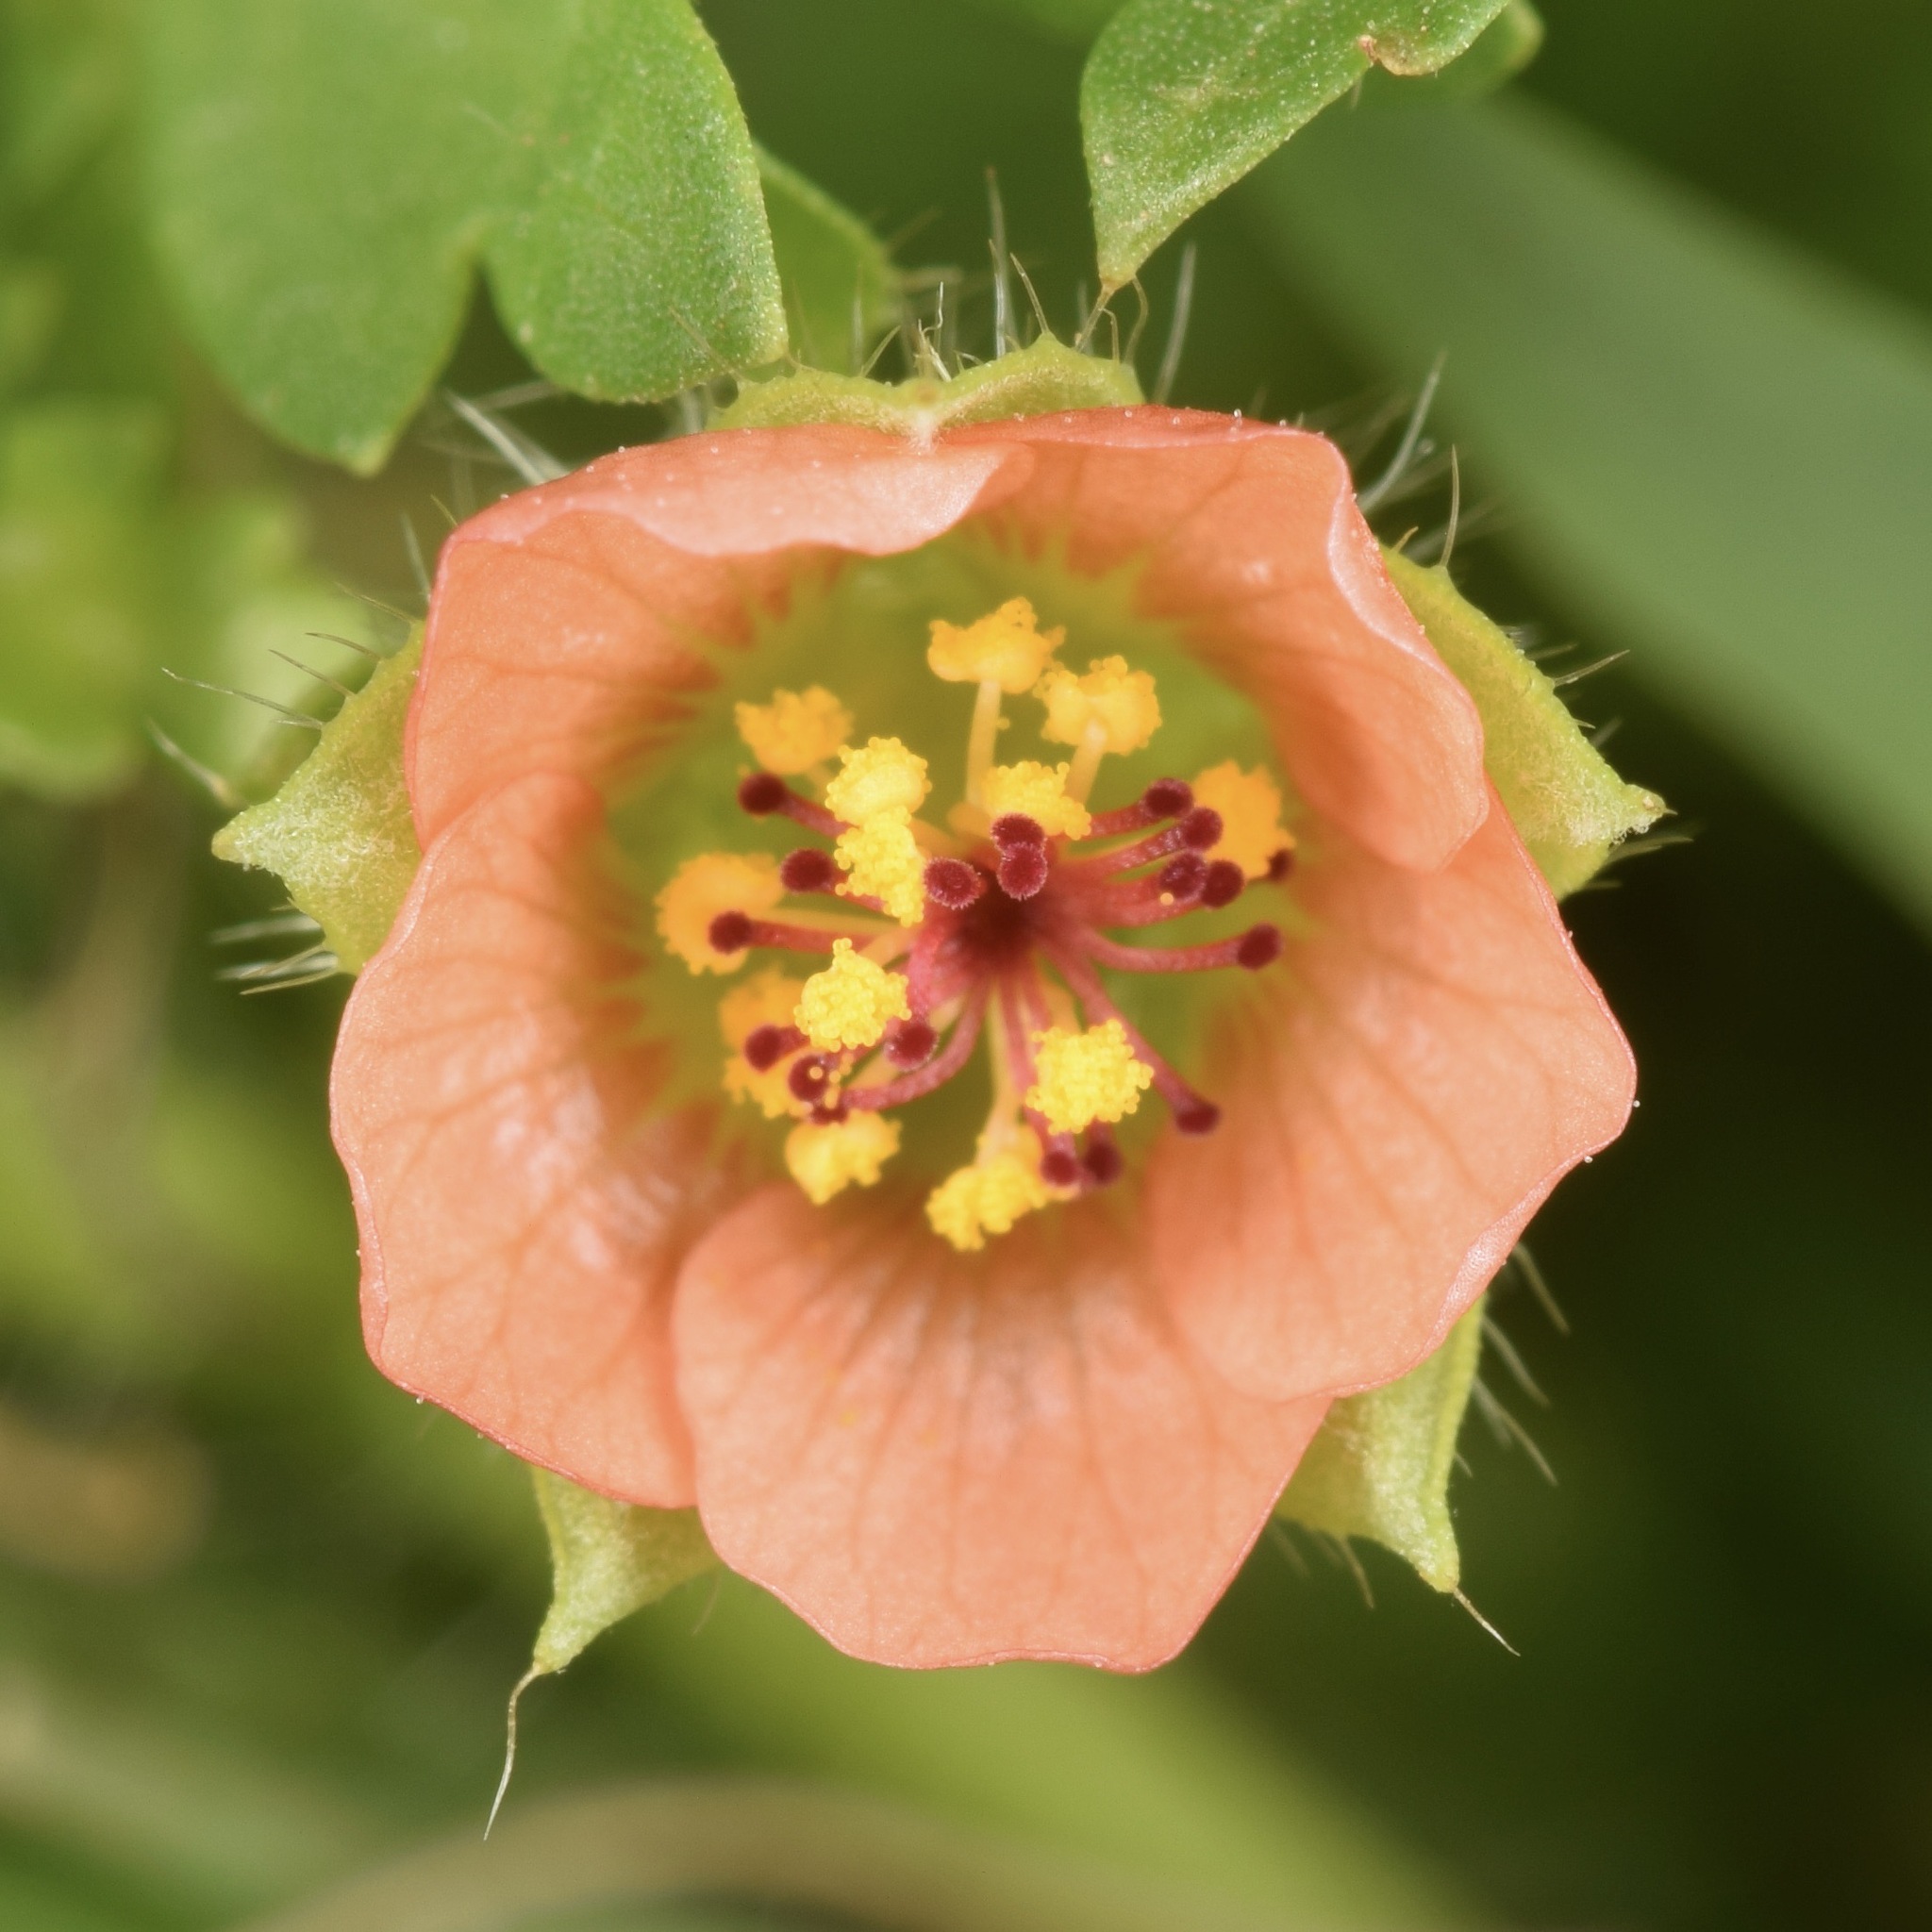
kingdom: Plantae
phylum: Tracheophyta
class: Magnoliopsida
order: Malvales
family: Malvaceae
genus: Modiola
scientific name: Modiola caroliniana
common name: Carolina bristlemallow
